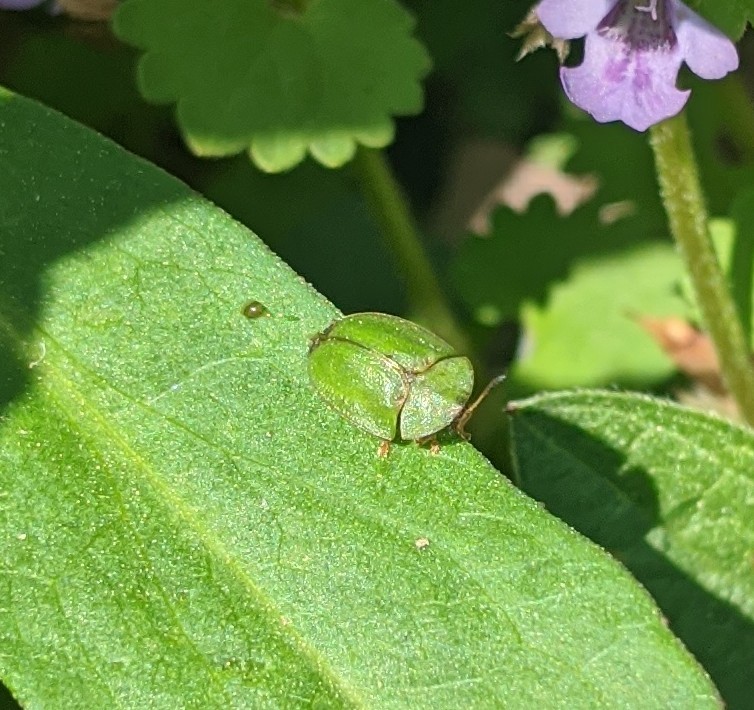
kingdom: Animalia
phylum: Arthropoda
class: Insecta
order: Coleoptera
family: Chrysomelidae
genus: Cassida
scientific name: Cassida rubiginosa
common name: Thistle tortoise beetle
